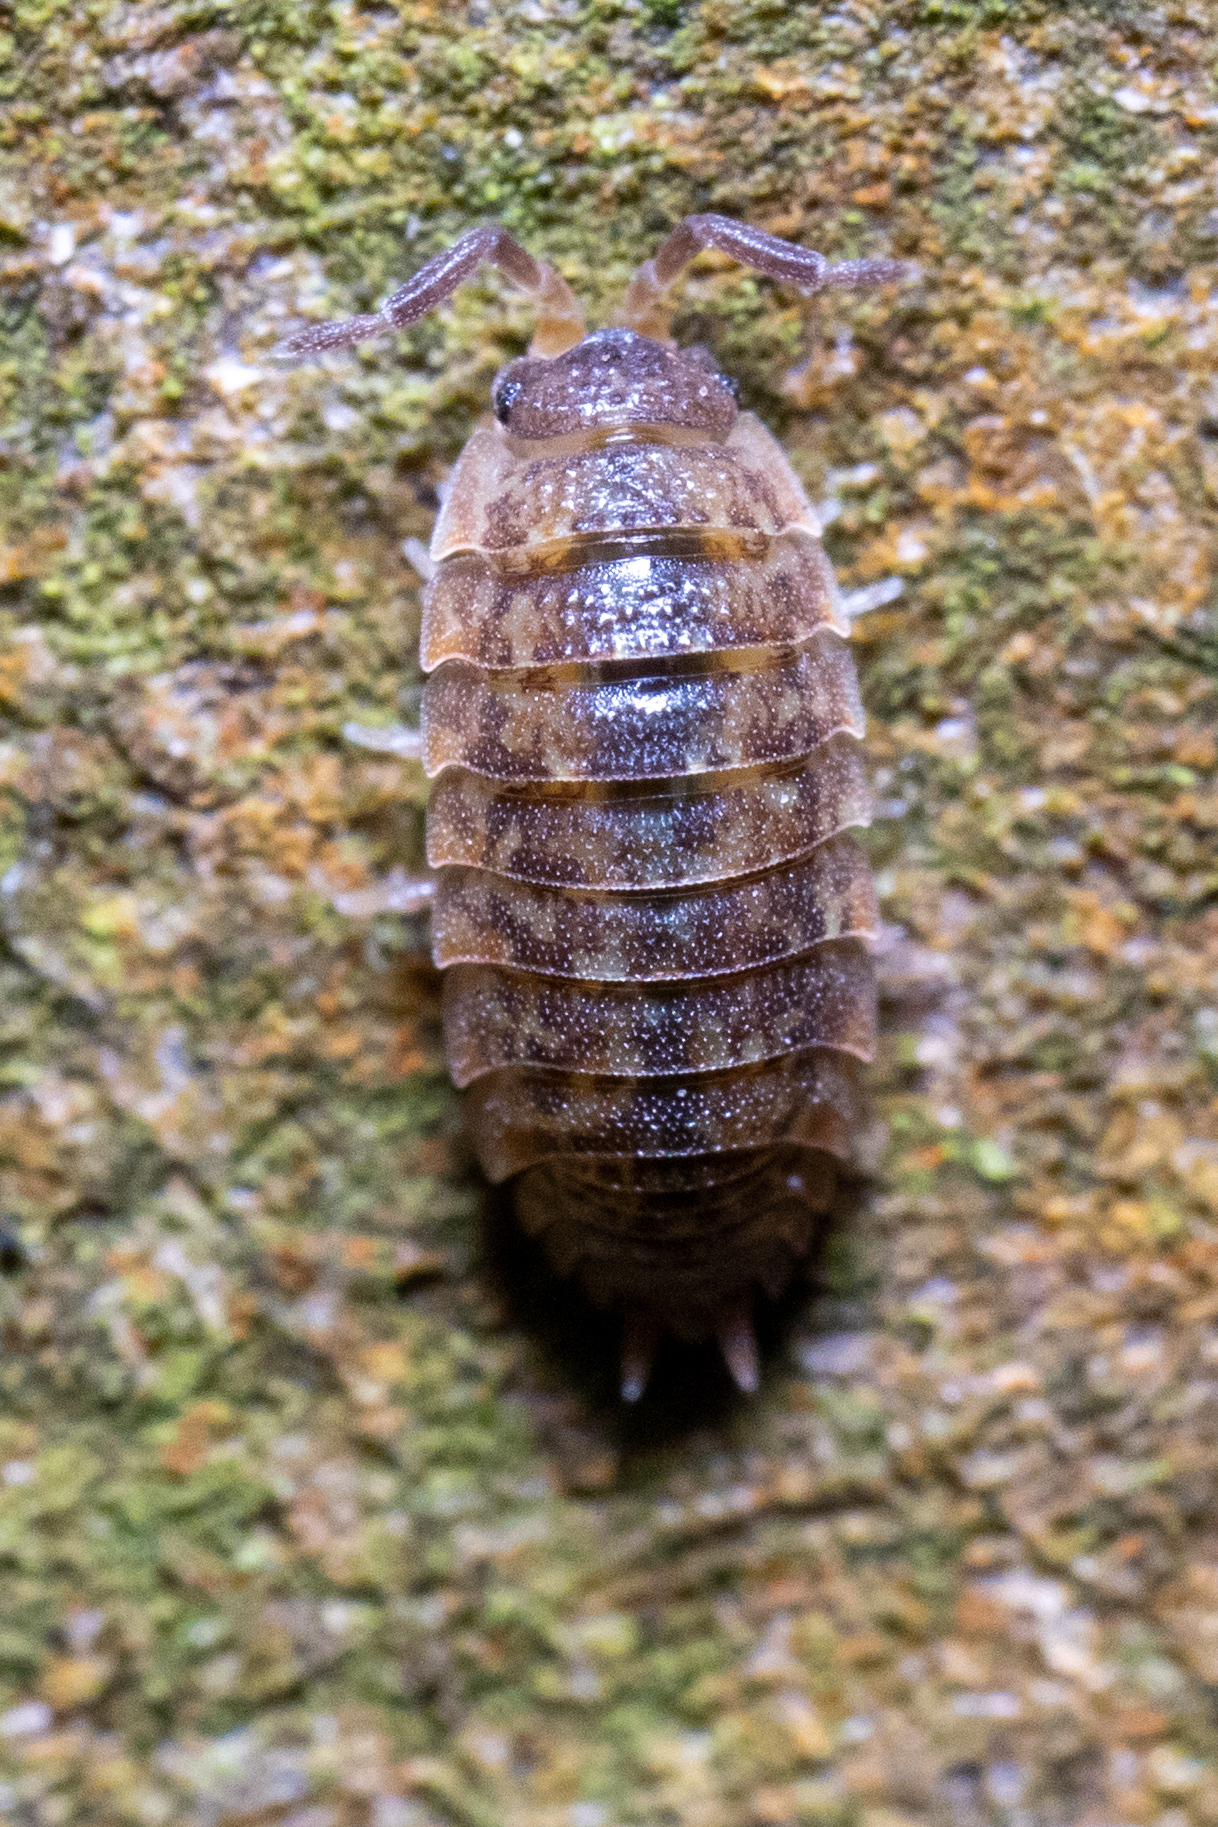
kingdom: Animalia
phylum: Arthropoda
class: Malacostraca
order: Isopoda
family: Porcellionidae
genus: Porcellio
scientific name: Porcellio scaber
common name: Common rough woodlouse
